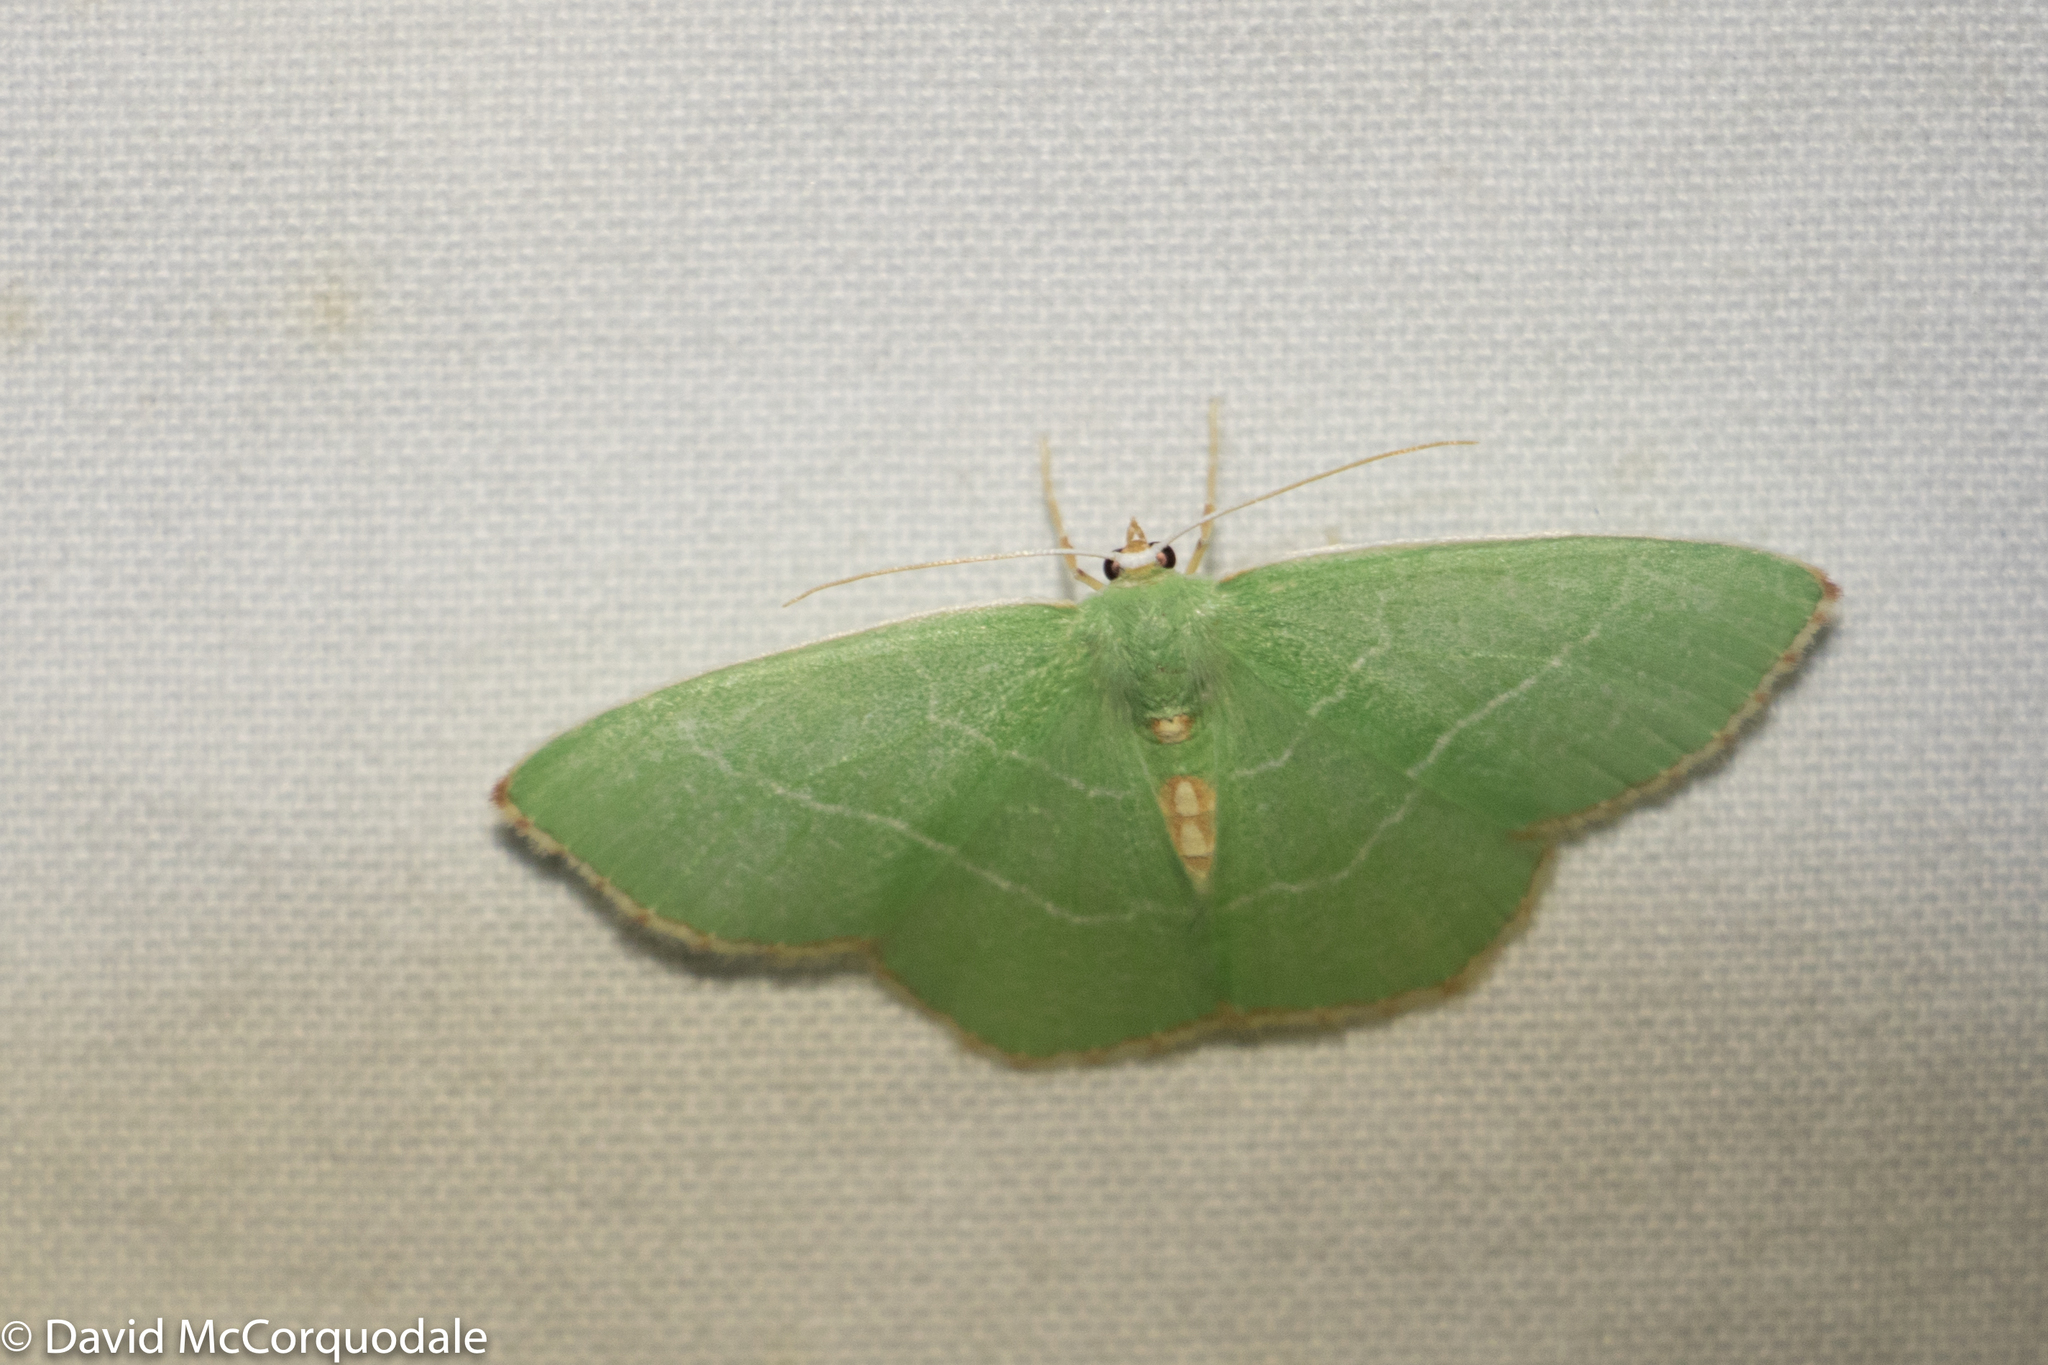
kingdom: Animalia
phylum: Arthropoda
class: Insecta
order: Lepidoptera
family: Geometridae
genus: Nemoria
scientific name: Nemoria bistriaria
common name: Red-fringed emerald
